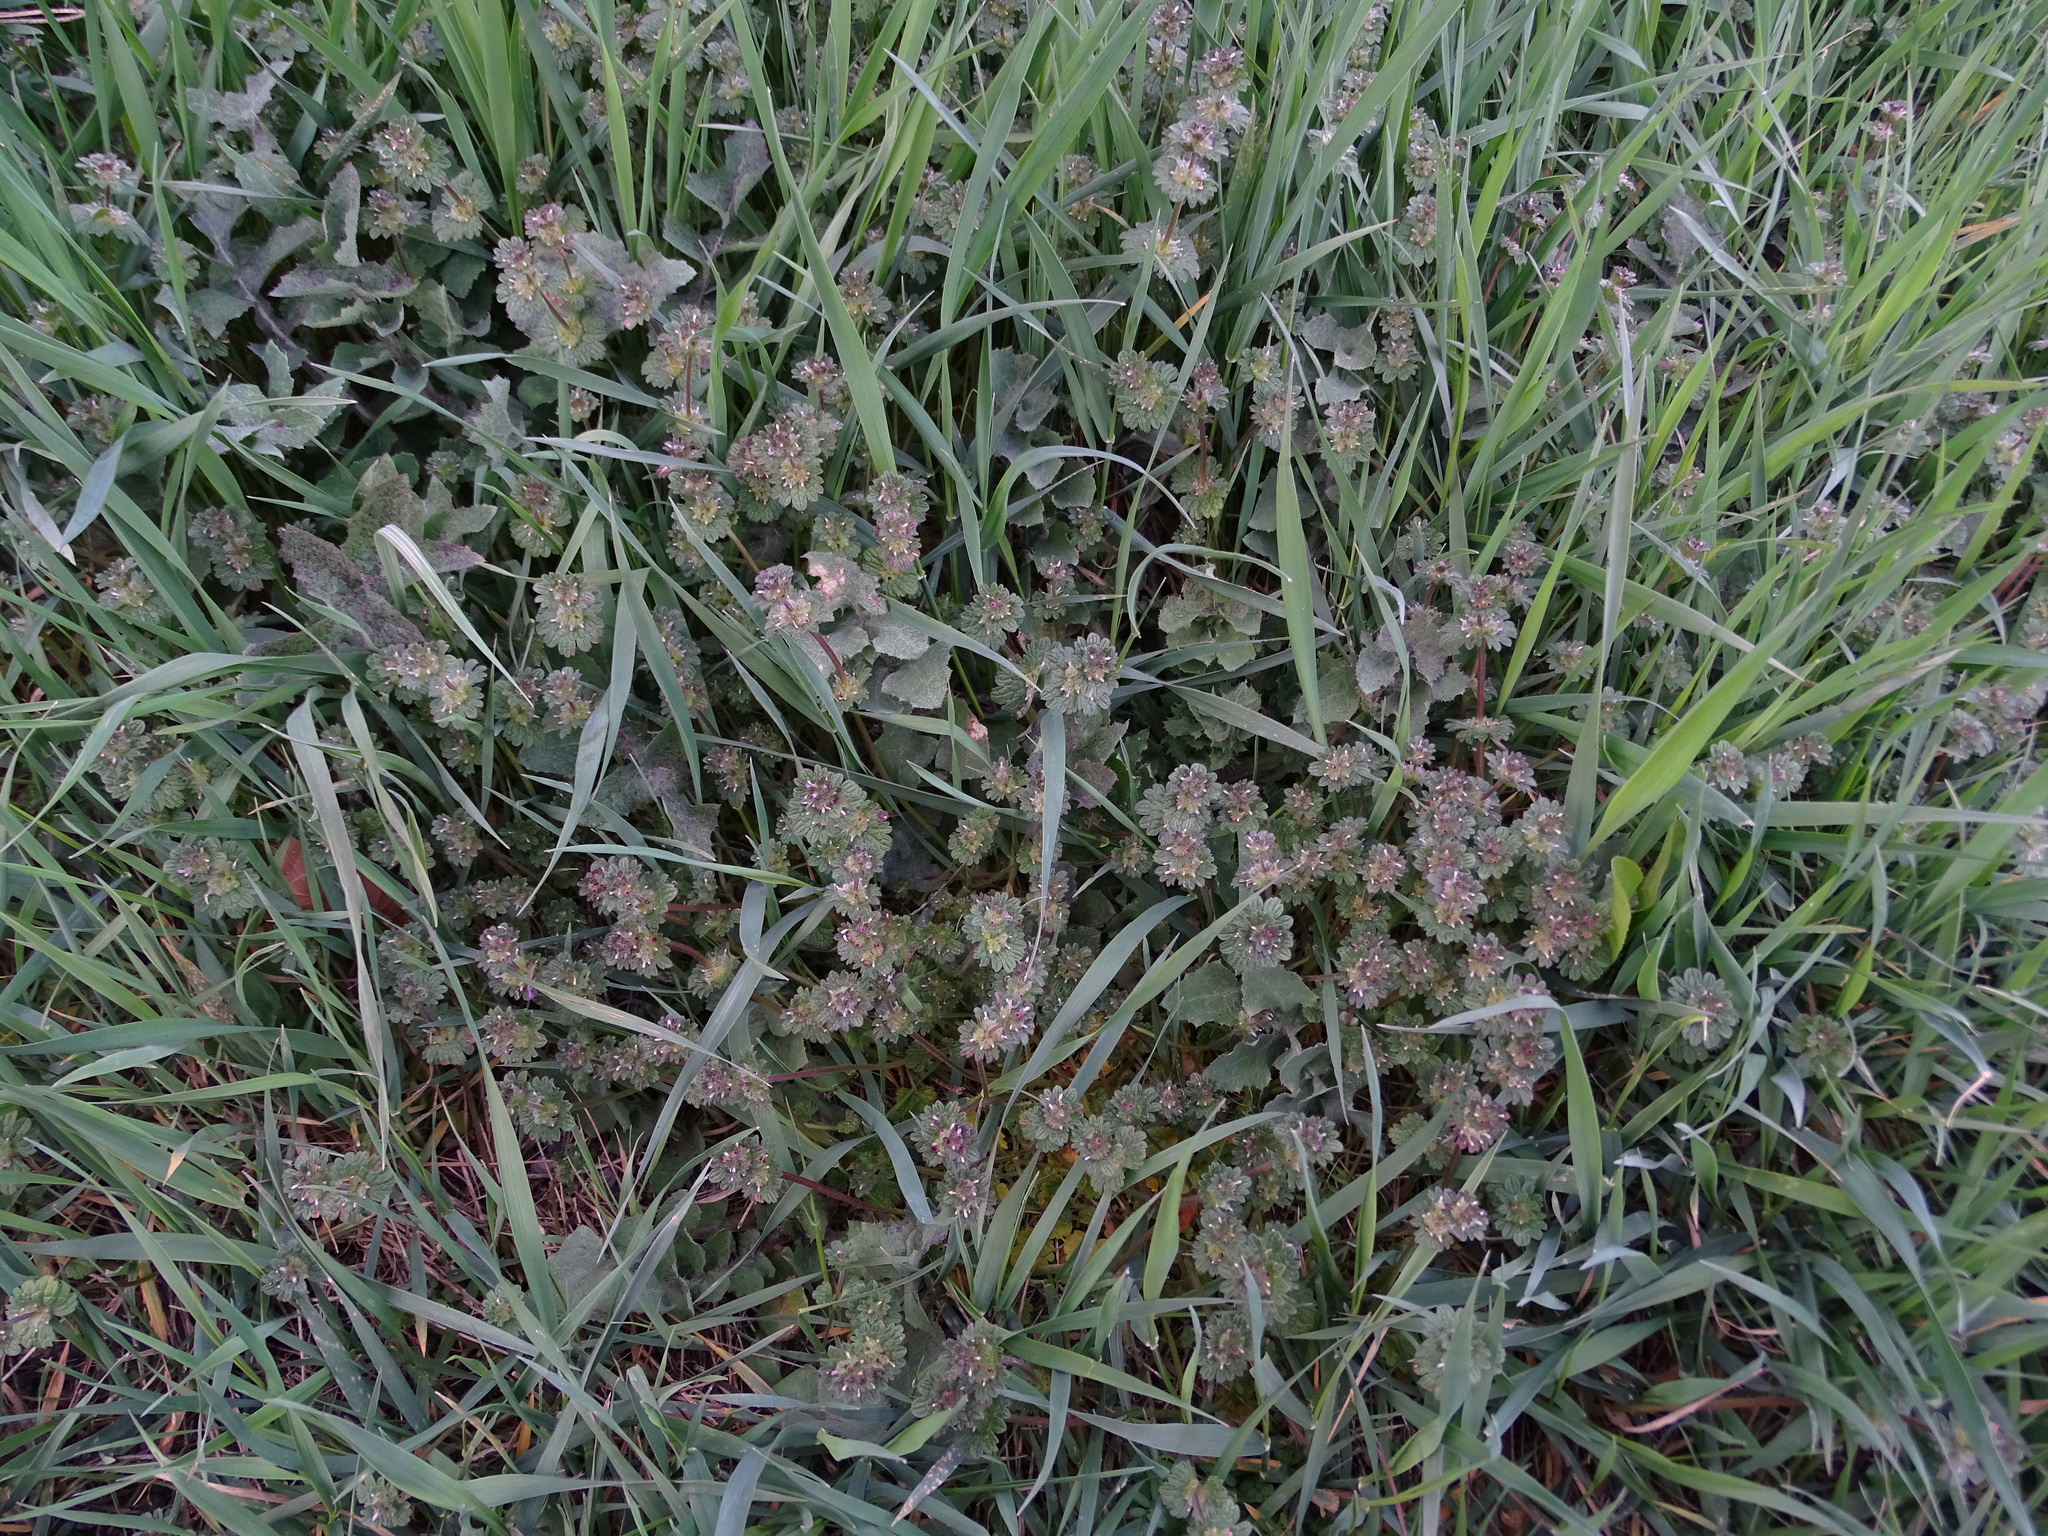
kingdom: Plantae
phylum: Tracheophyta
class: Magnoliopsida
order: Lamiales
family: Lamiaceae
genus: Lamium
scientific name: Lamium amplexicaule
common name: Henbit dead-nettle
